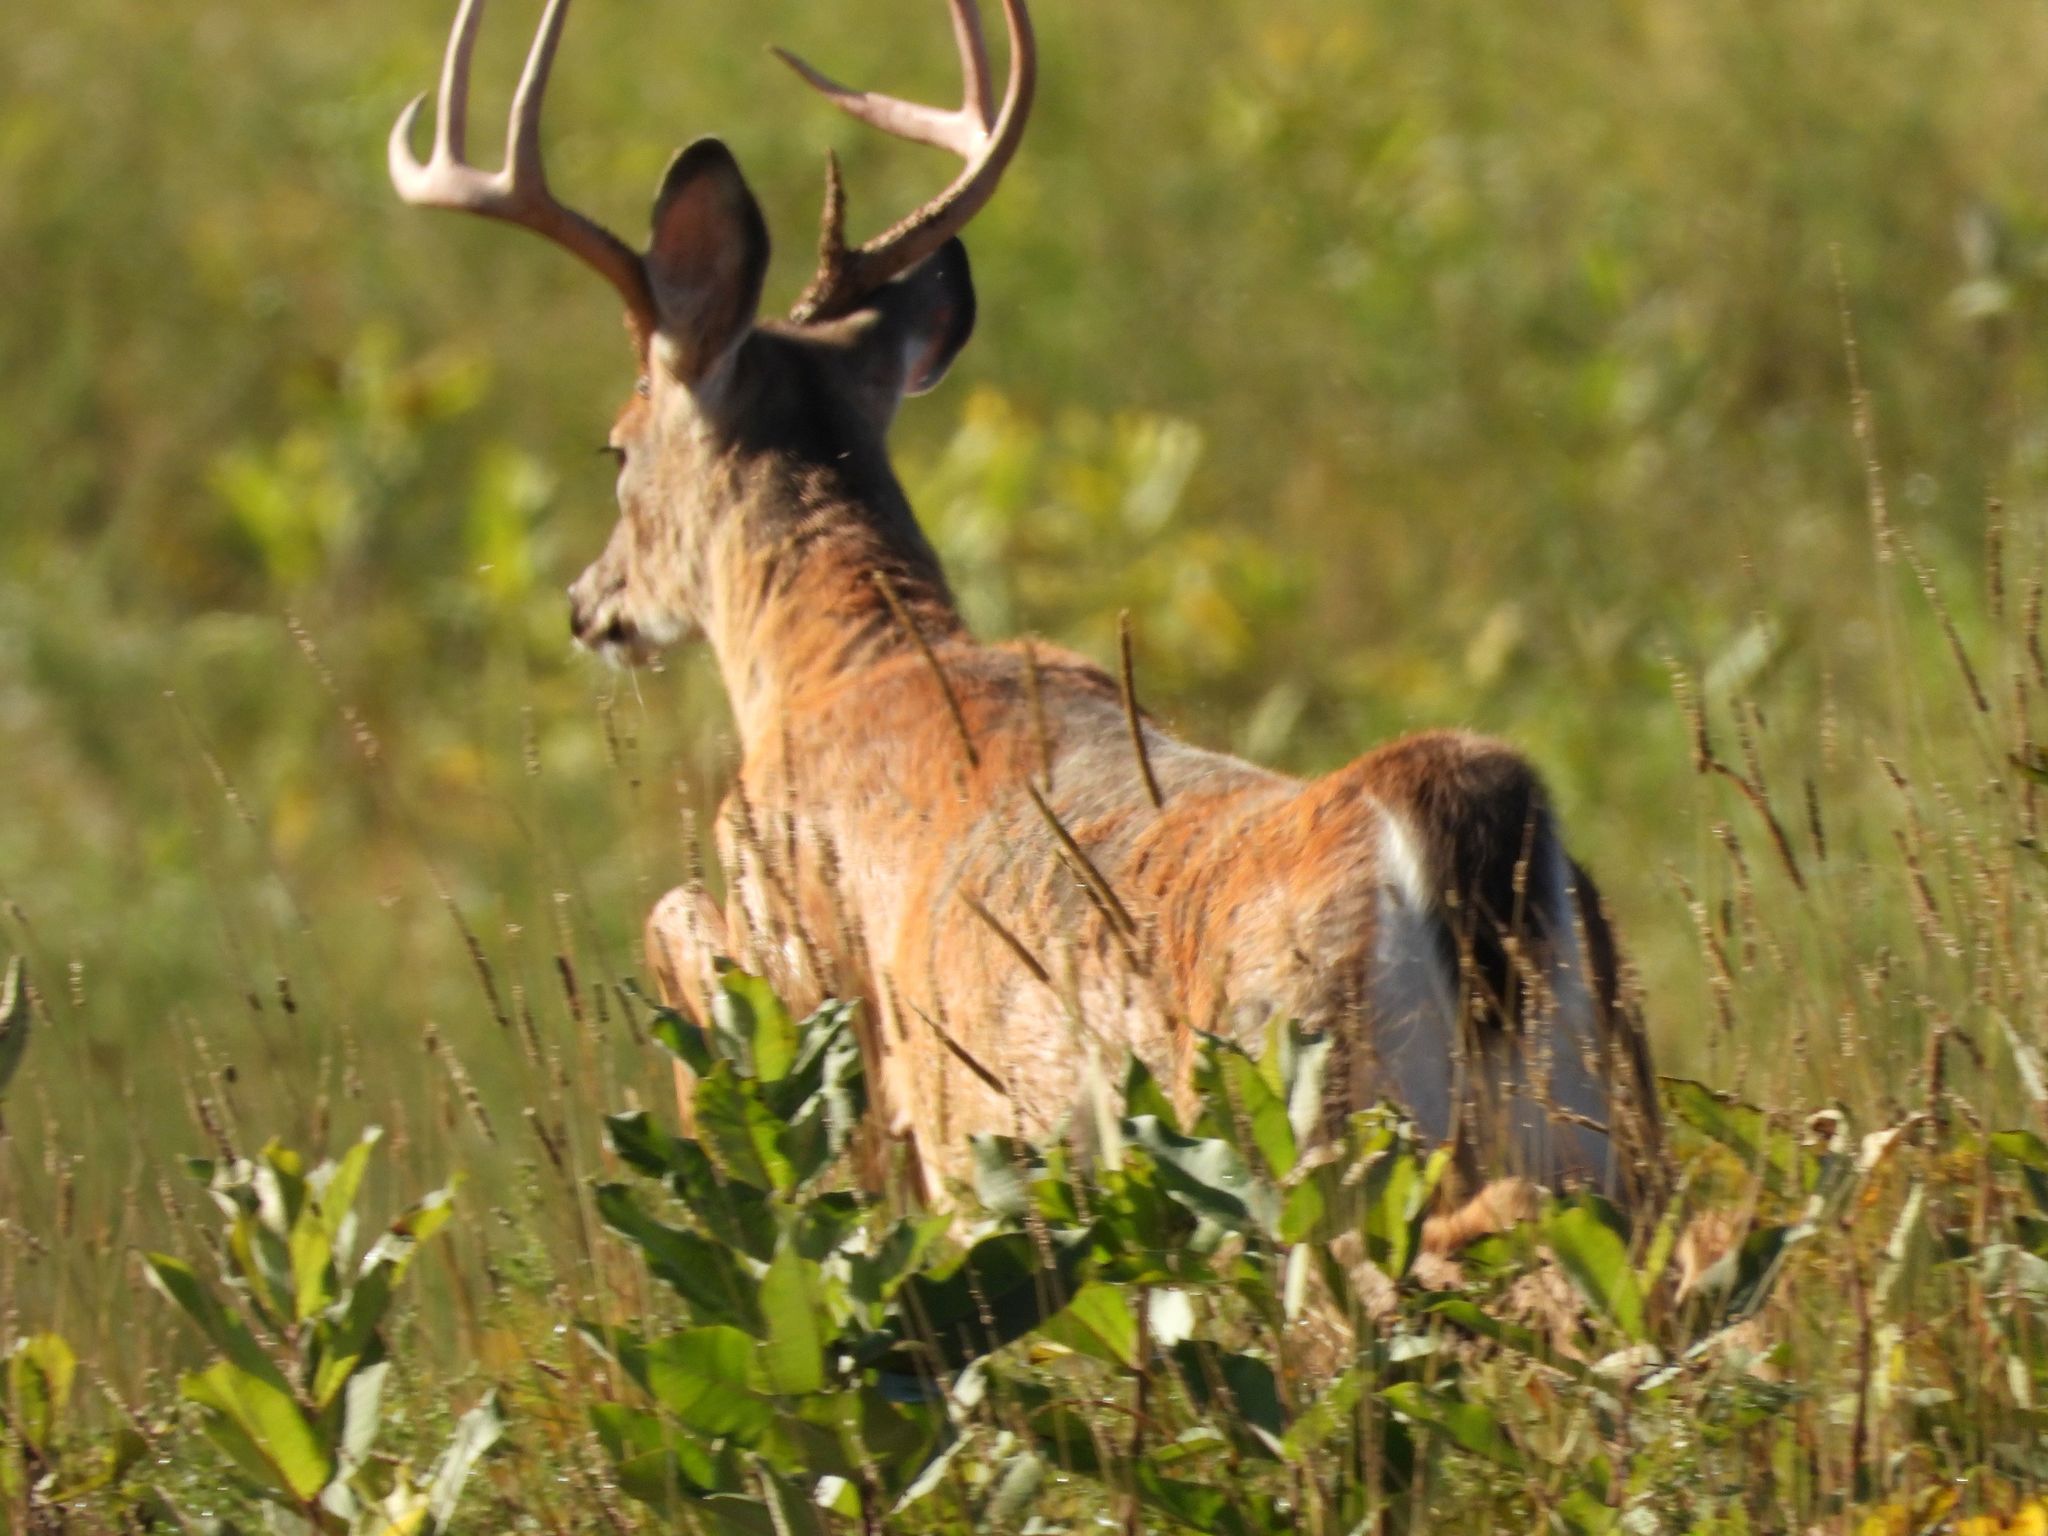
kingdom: Animalia
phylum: Chordata
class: Mammalia
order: Artiodactyla
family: Cervidae
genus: Odocoileus
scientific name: Odocoileus virginianus
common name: White-tailed deer
